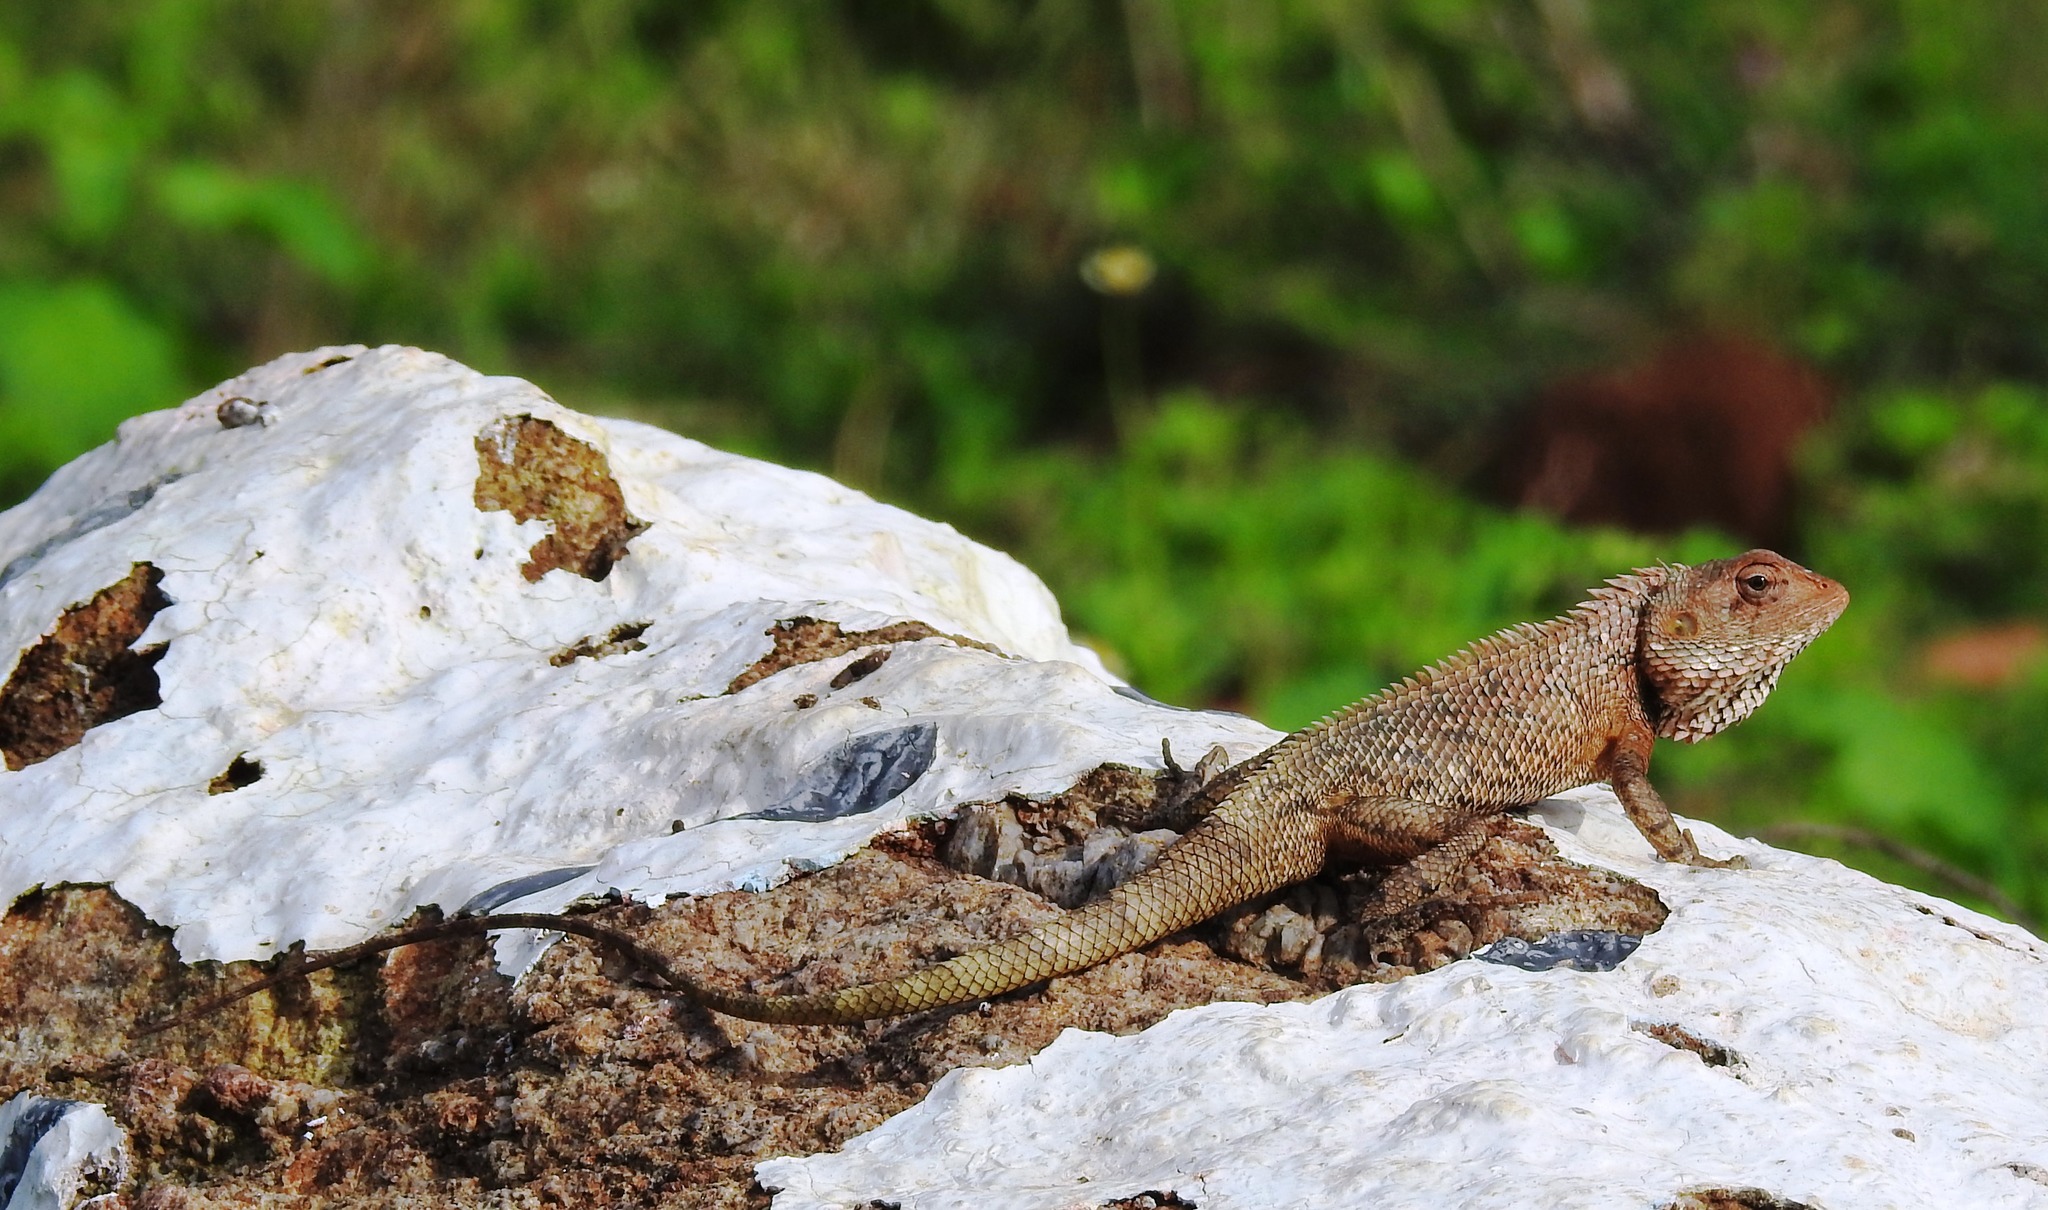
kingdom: Animalia
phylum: Chordata
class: Squamata
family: Agamidae
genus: Calotes
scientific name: Calotes versicolor
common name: Oriental garden lizard
